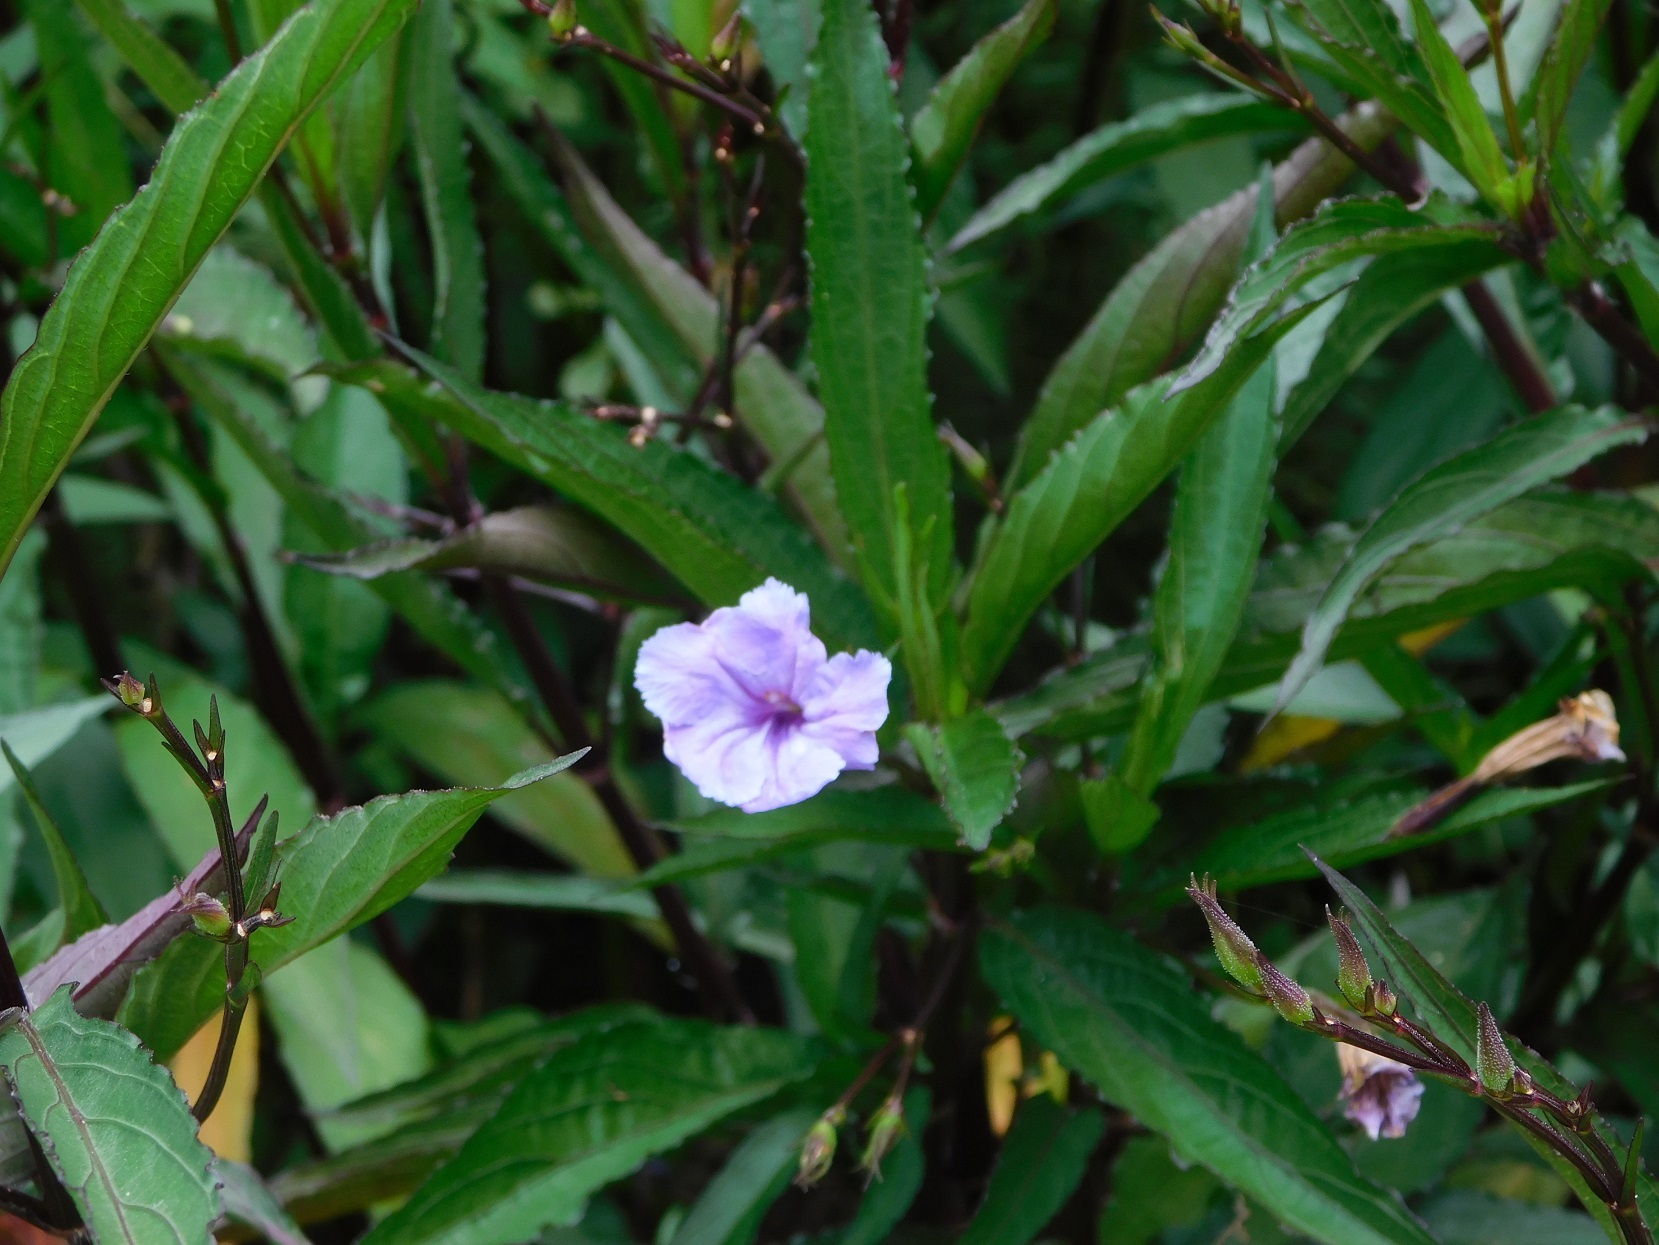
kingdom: Plantae
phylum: Tracheophyta
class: Magnoliopsida
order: Lamiales
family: Acanthaceae
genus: Ruellia
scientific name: Ruellia simplex
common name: Softseed wild petunia
